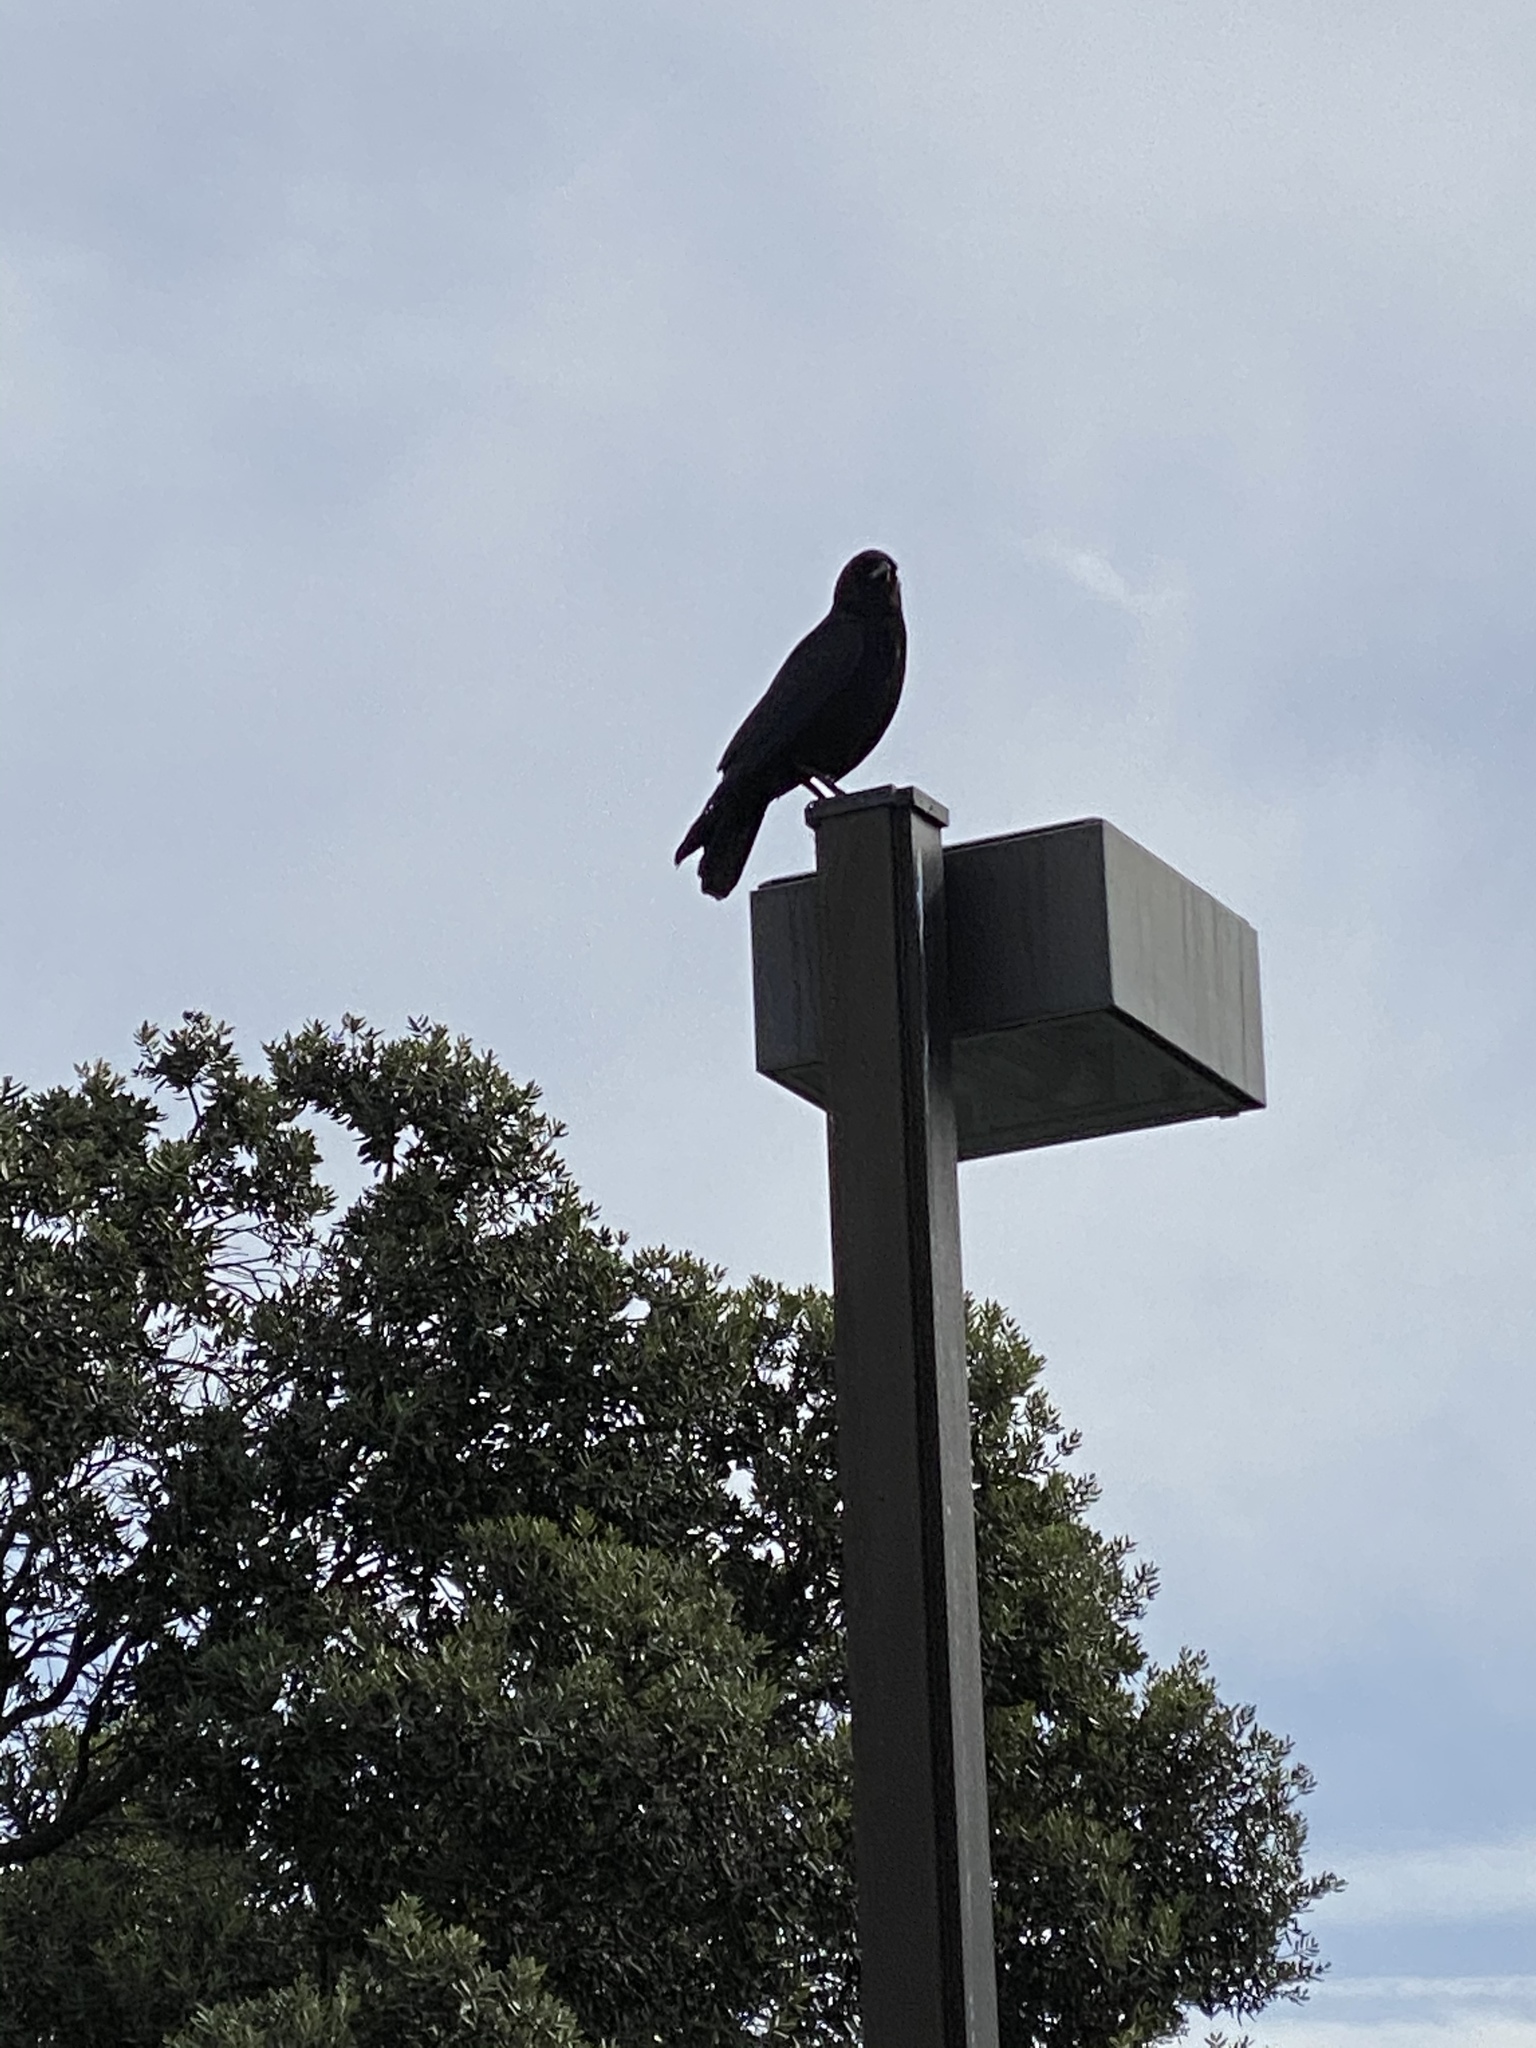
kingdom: Animalia
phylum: Chordata
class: Aves
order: Passeriformes
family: Corvidae
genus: Corvus
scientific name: Corvus brachyrhynchos
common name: American crow
